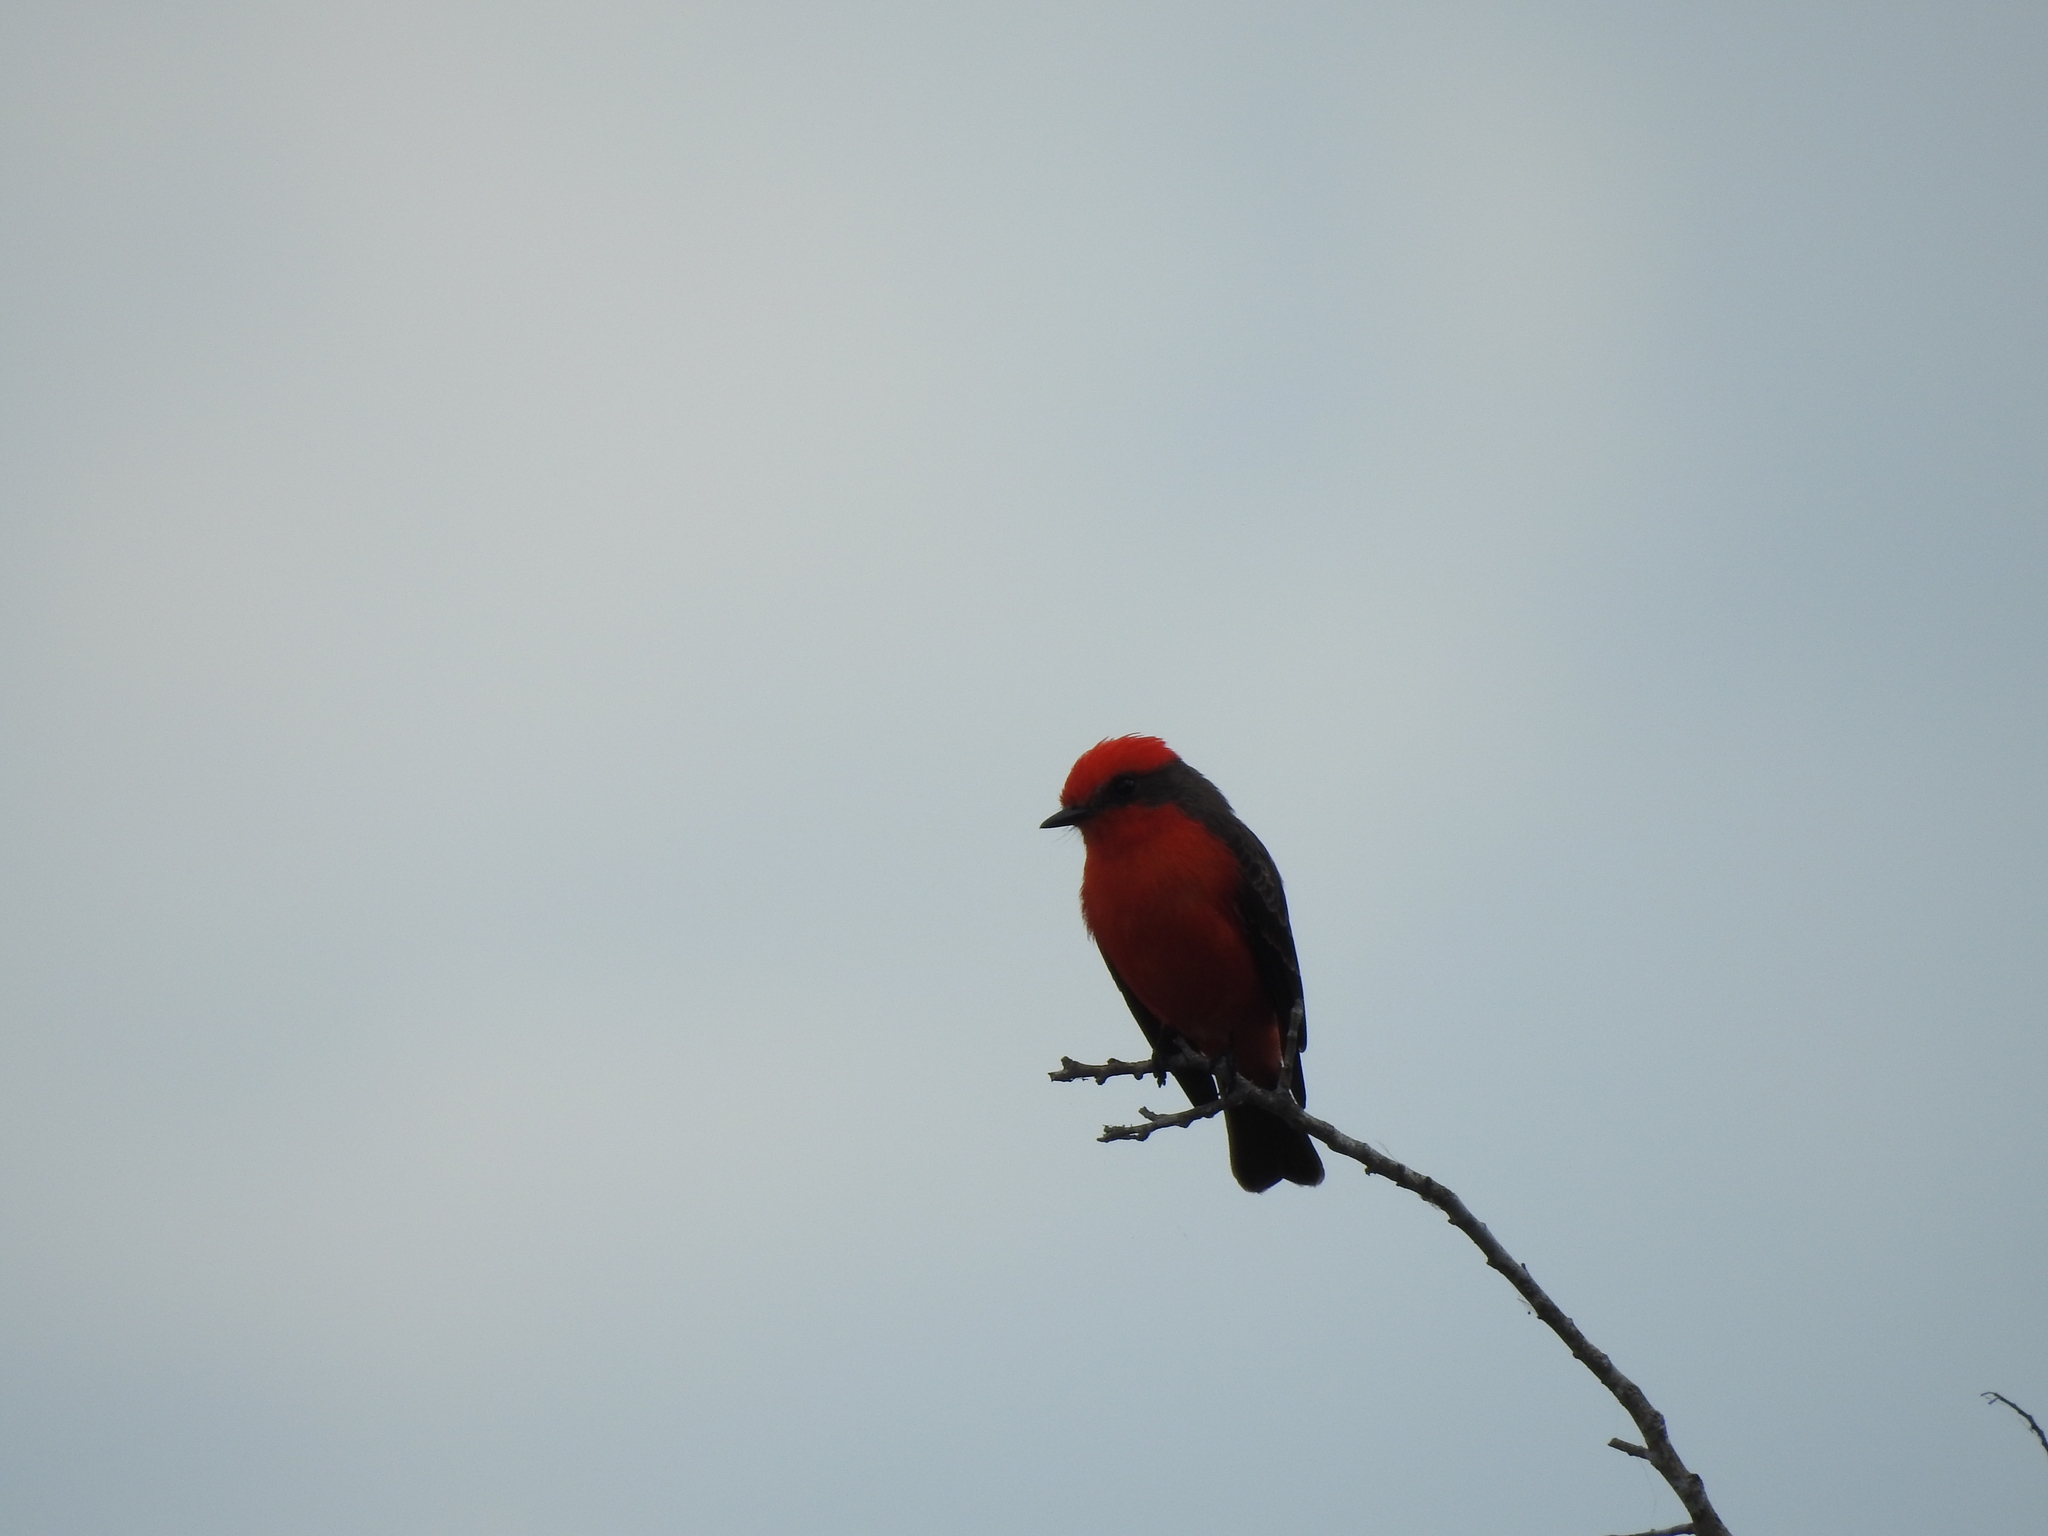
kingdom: Animalia
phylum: Chordata
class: Aves
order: Passeriformes
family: Tyrannidae
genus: Pyrocephalus
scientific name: Pyrocephalus rubinus
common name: Vermilion flycatcher
